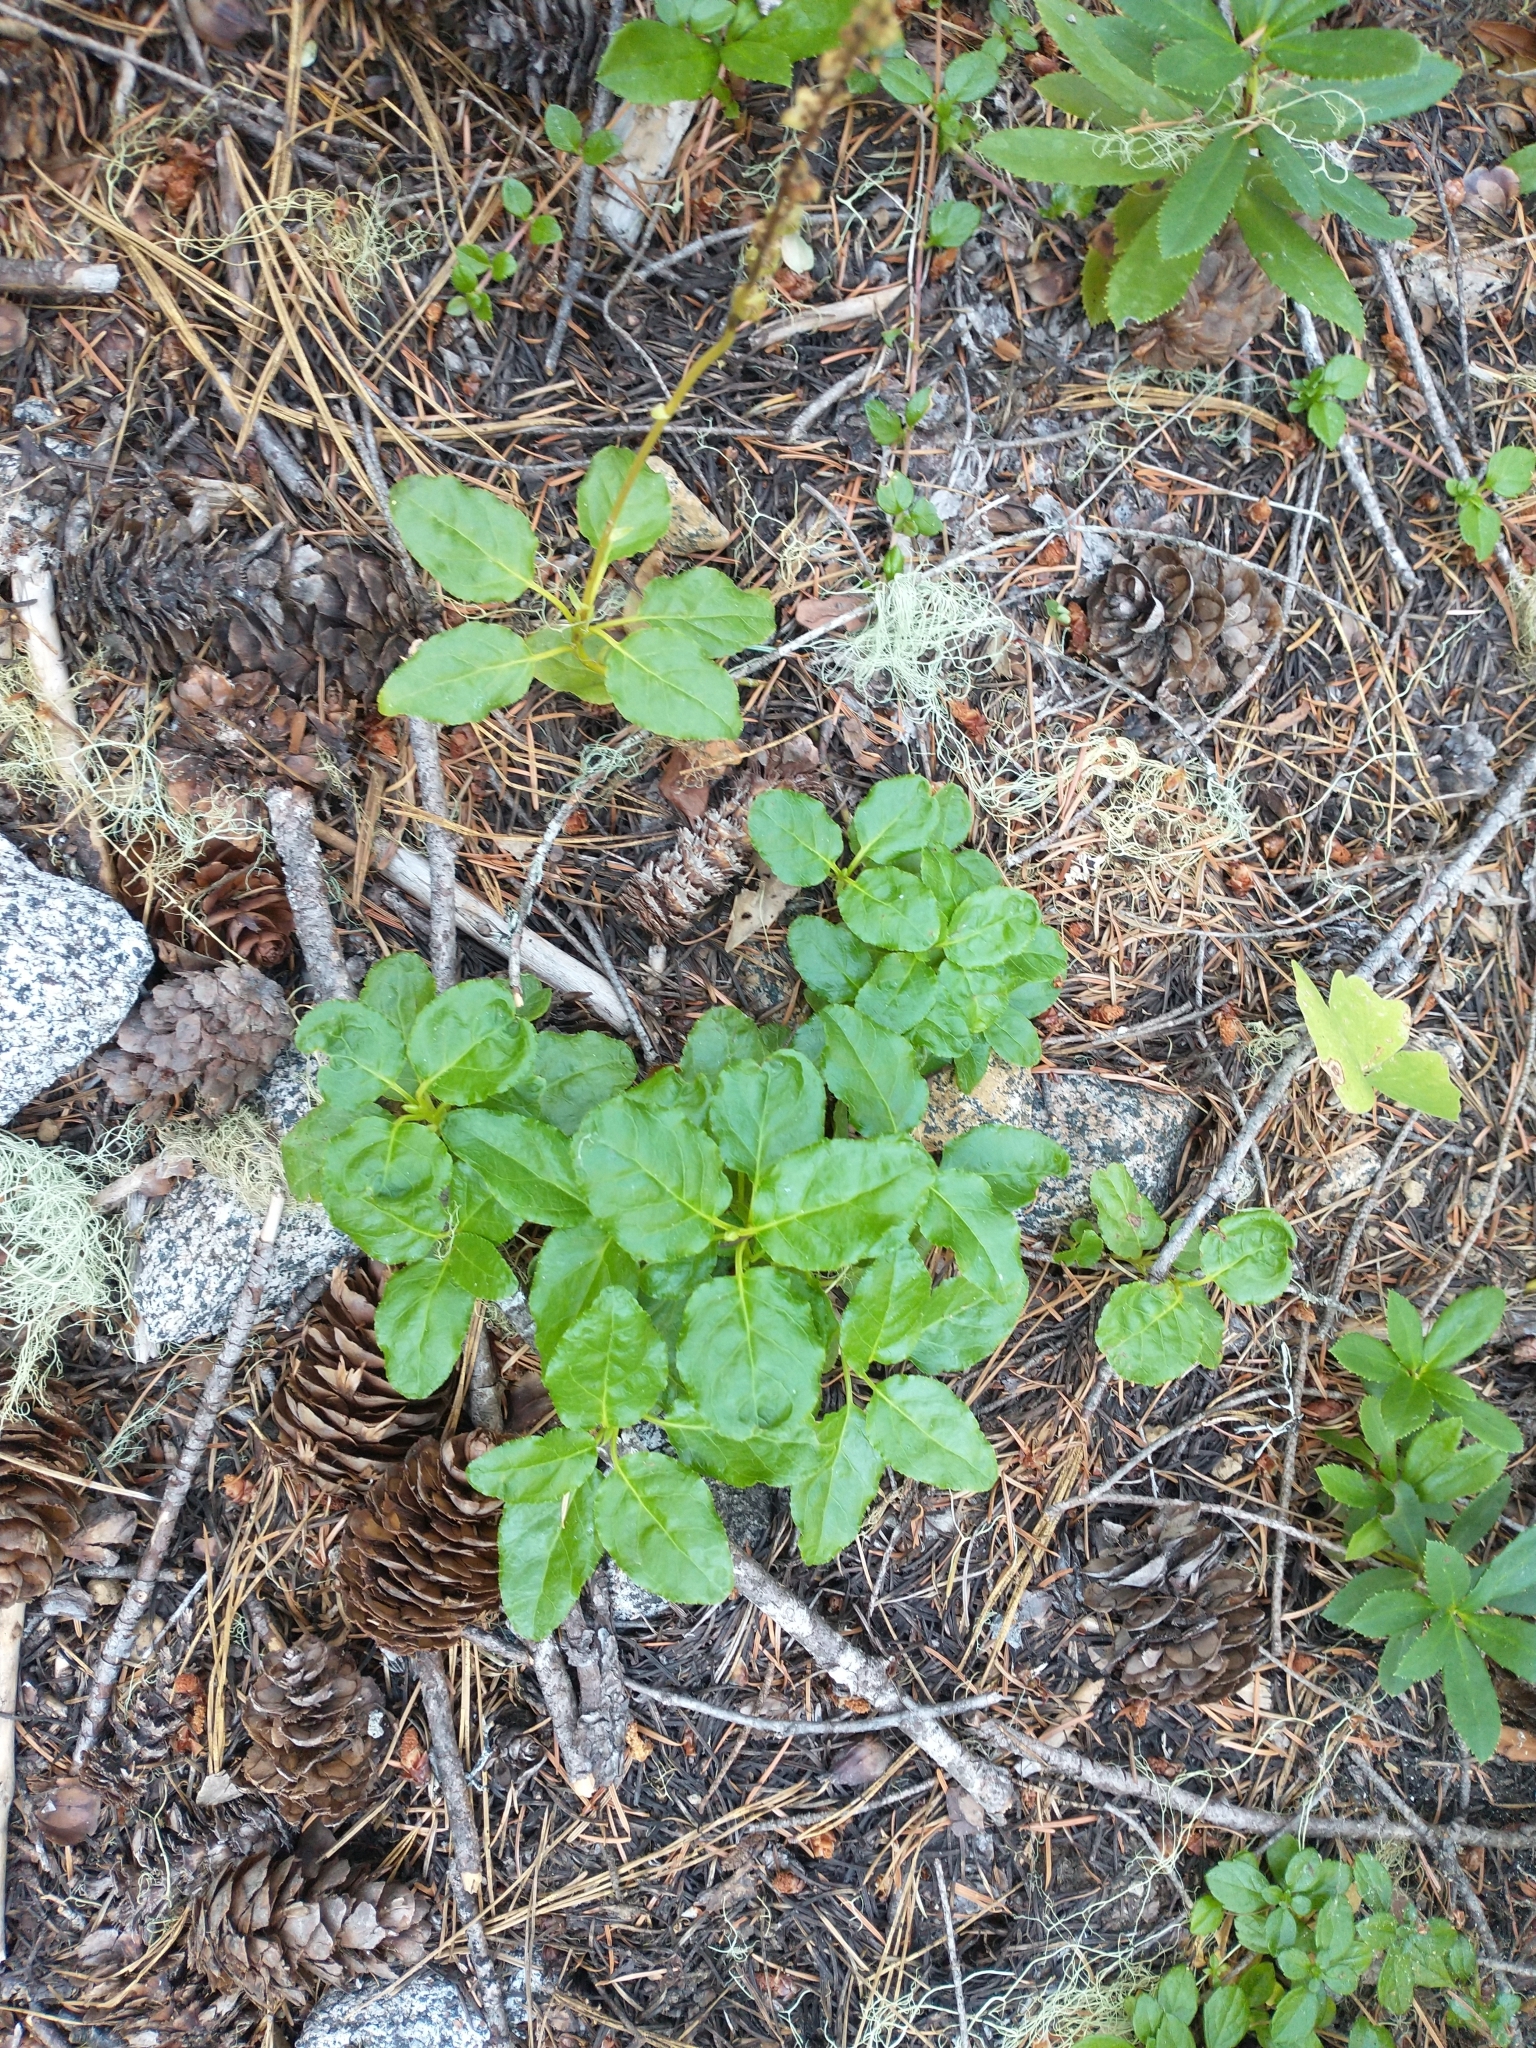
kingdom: Plantae
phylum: Tracheophyta
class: Magnoliopsida
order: Ericales
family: Ericaceae
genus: Orthilia
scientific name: Orthilia secunda
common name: One-sided orthilia
